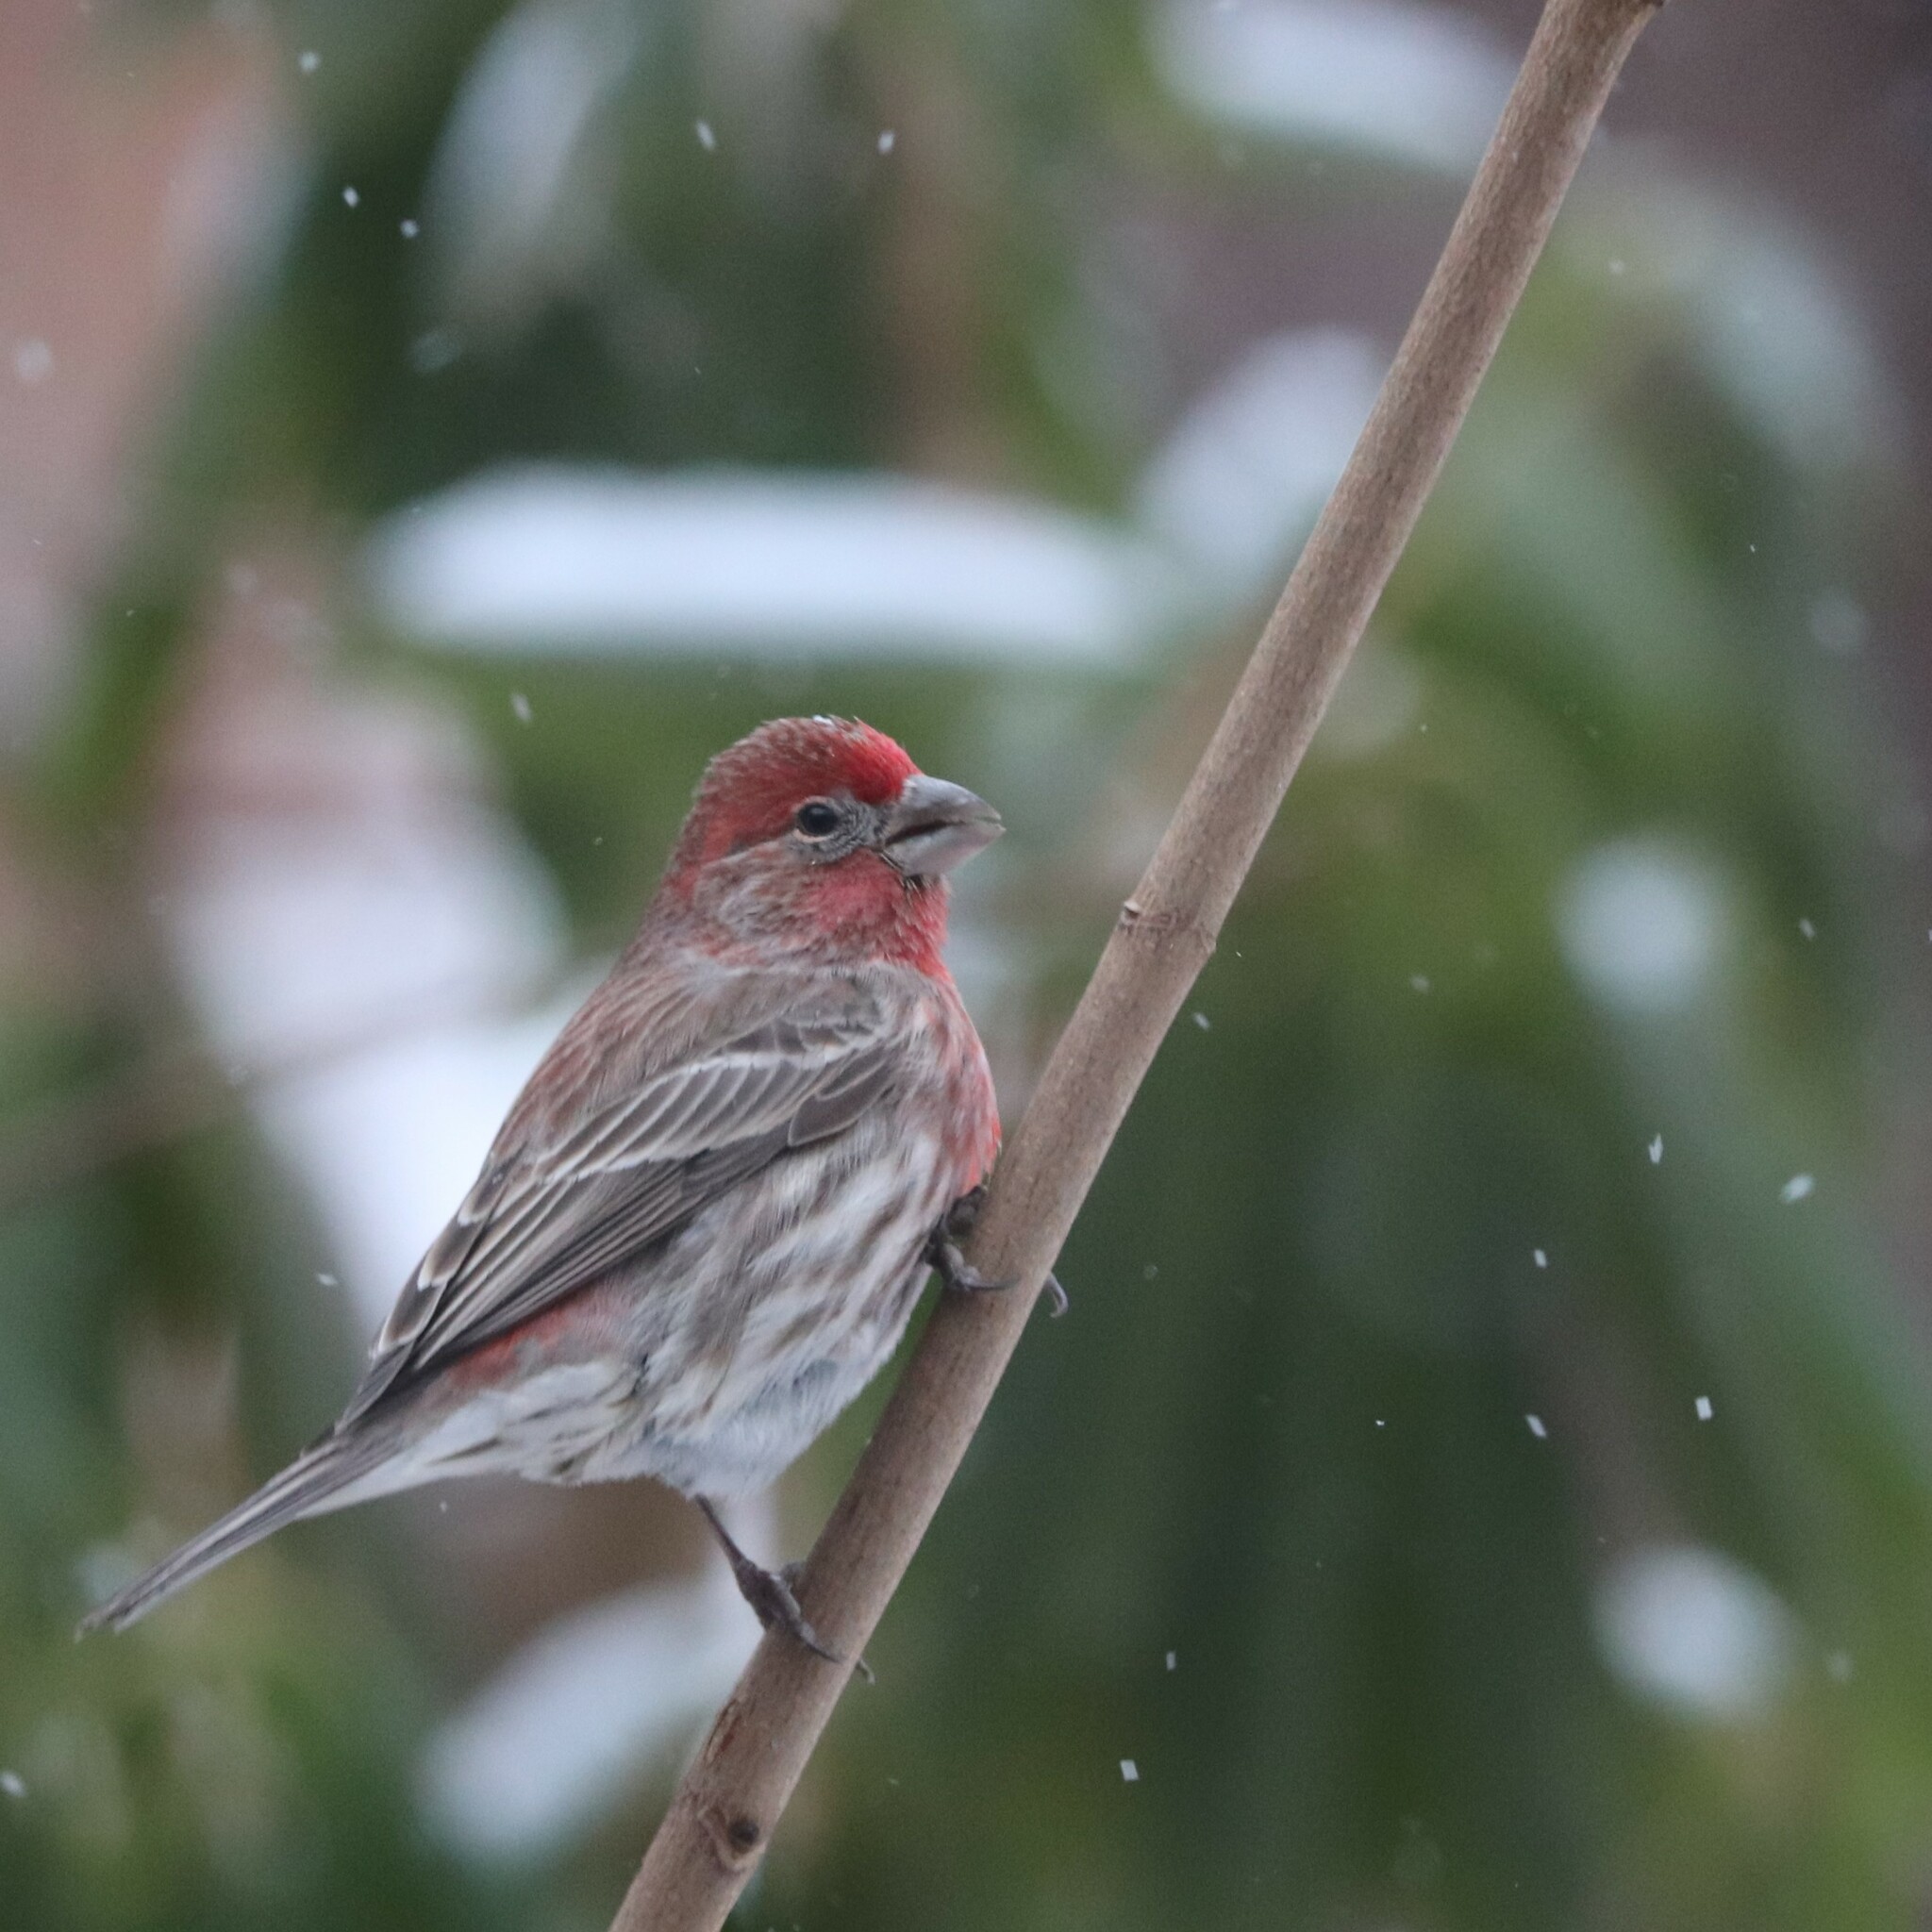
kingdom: Animalia
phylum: Chordata
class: Aves
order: Passeriformes
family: Fringillidae
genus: Haemorhous
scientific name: Haemorhous mexicanus
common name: House finch
